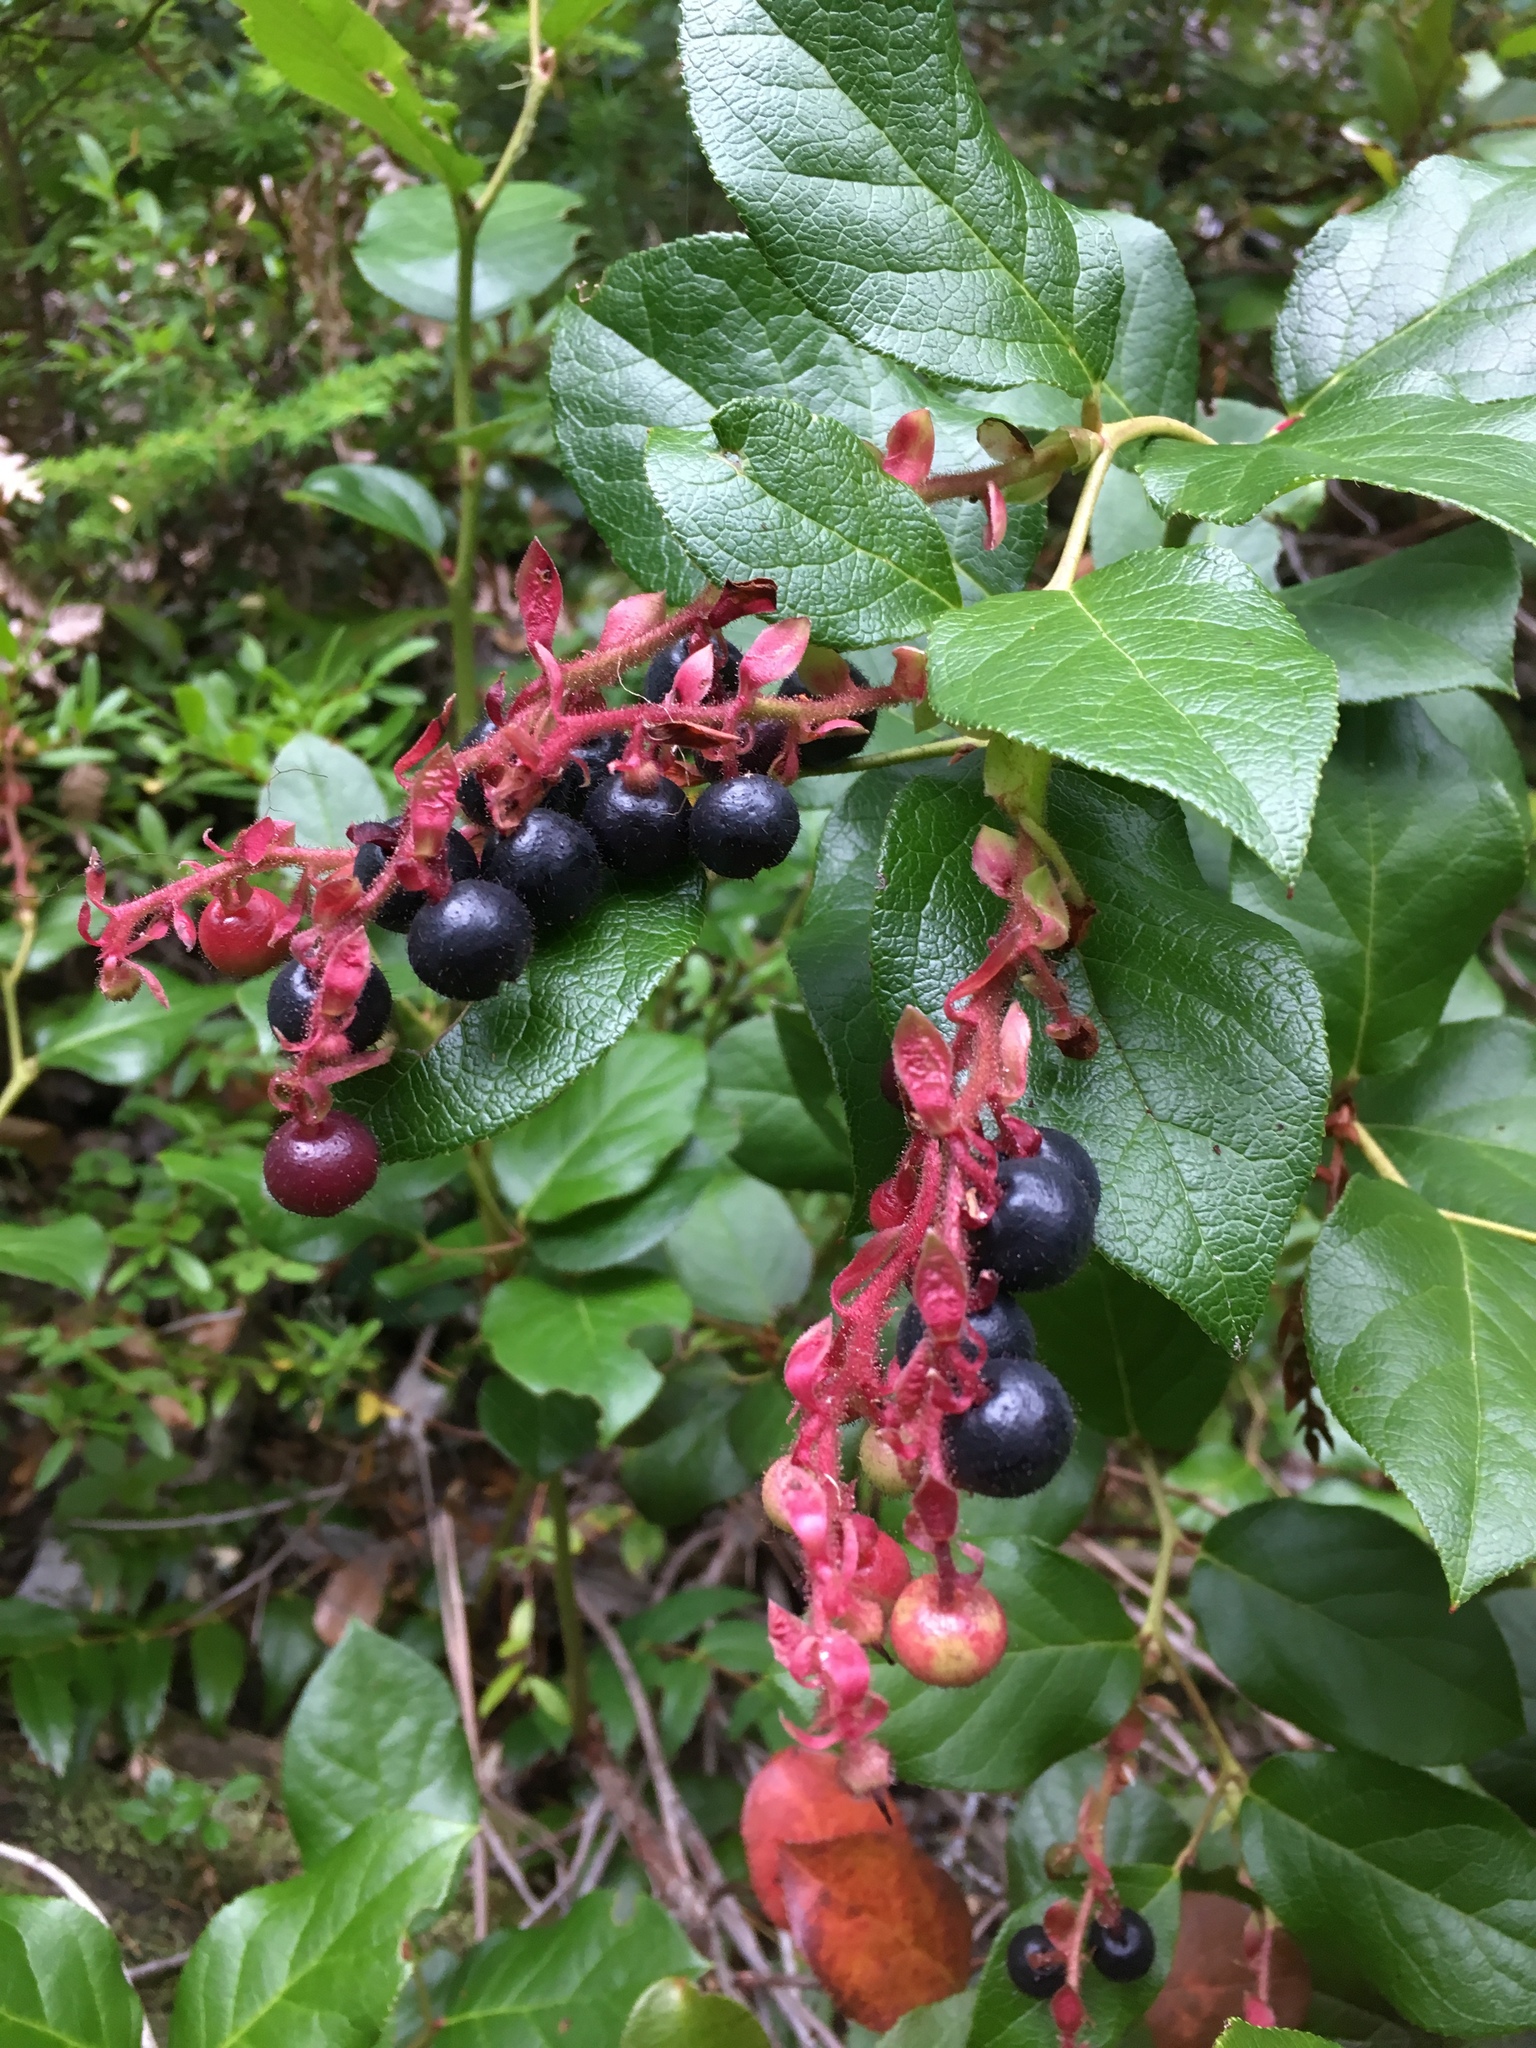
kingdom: Plantae
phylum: Tracheophyta
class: Magnoliopsida
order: Ericales
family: Ericaceae
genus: Gaultheria
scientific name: Gaultheria shallon
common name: Shallon
